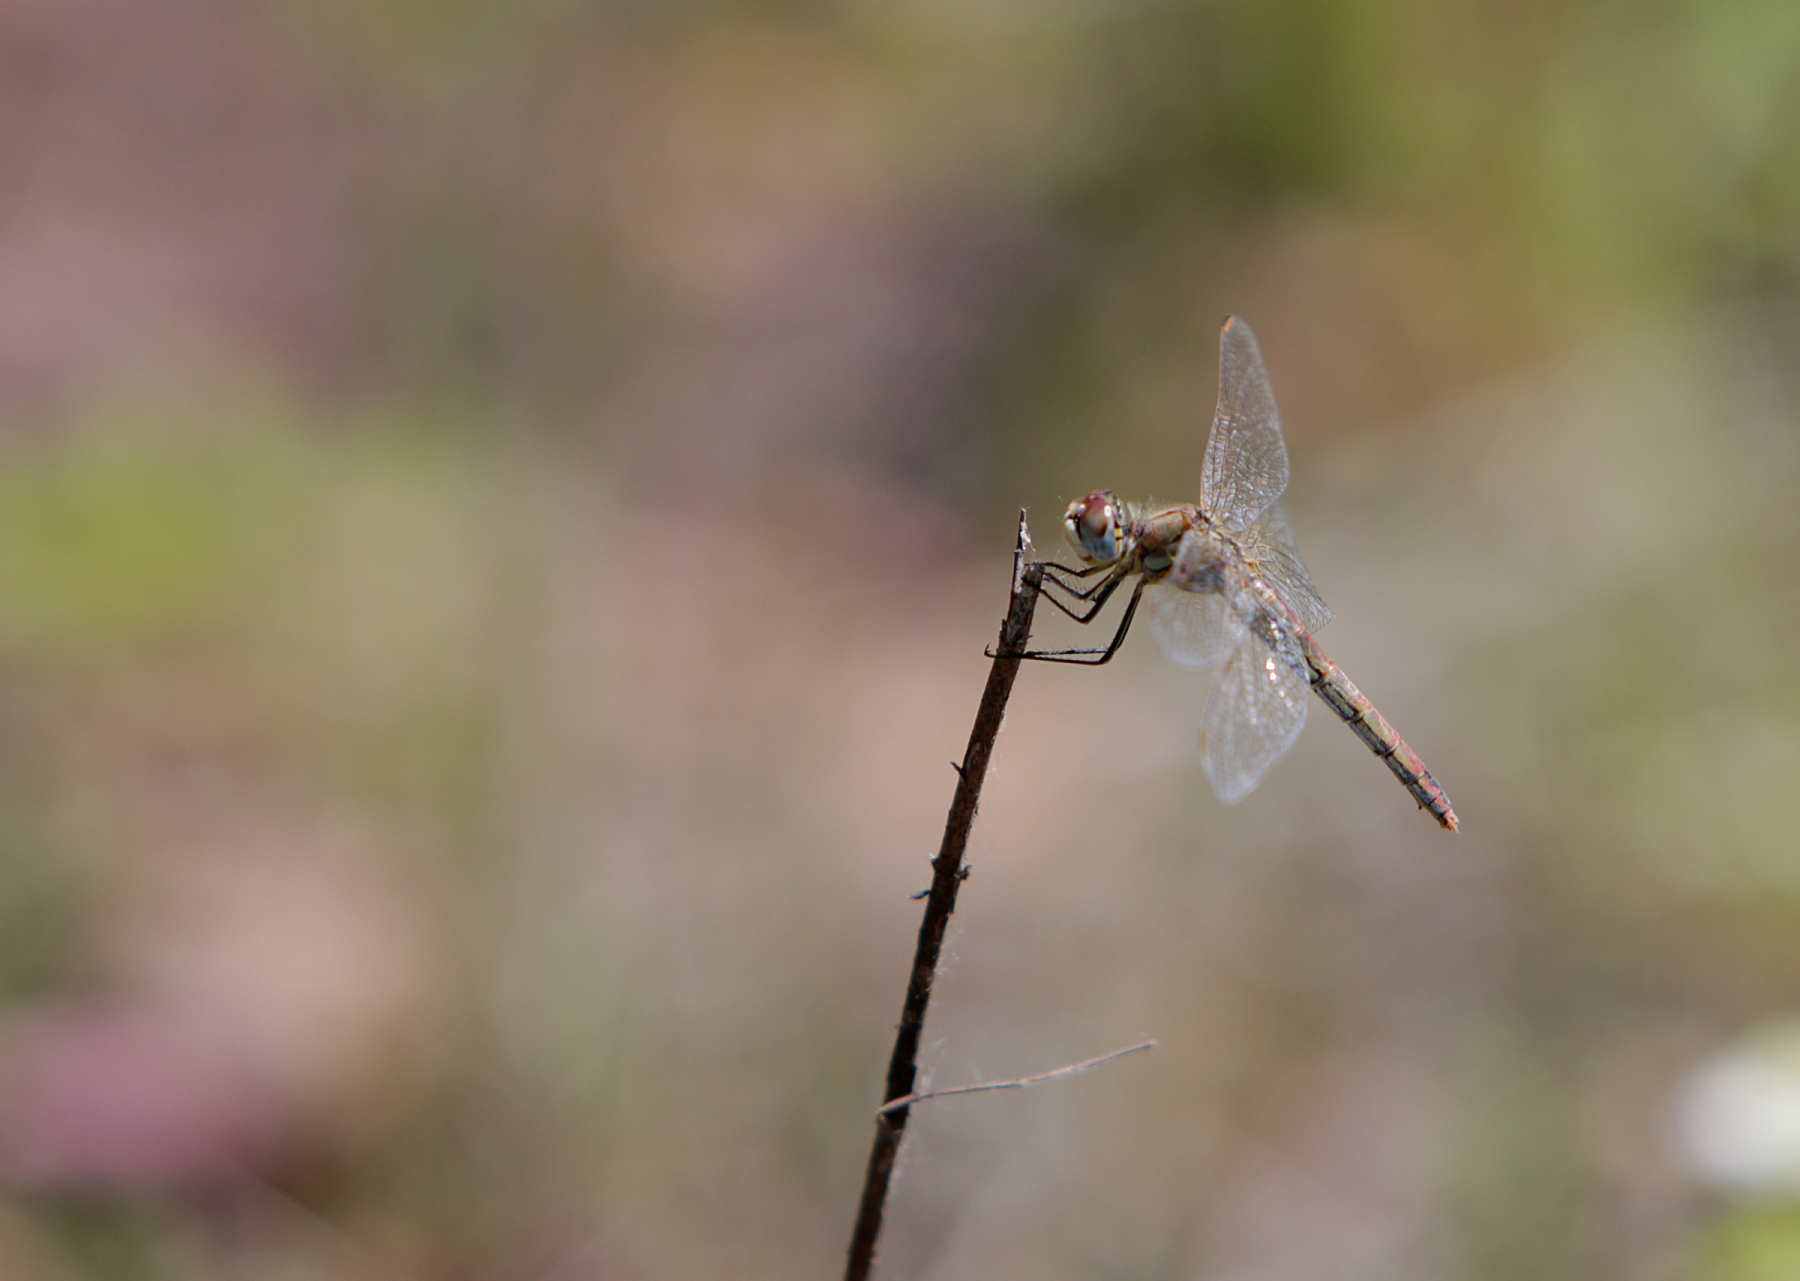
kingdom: Animalia
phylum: Arthropoda
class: Insecta
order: Odonata
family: Libellulidae
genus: Sympetrum
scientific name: Sympetrum fonscolombii
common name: Red-veined darter
